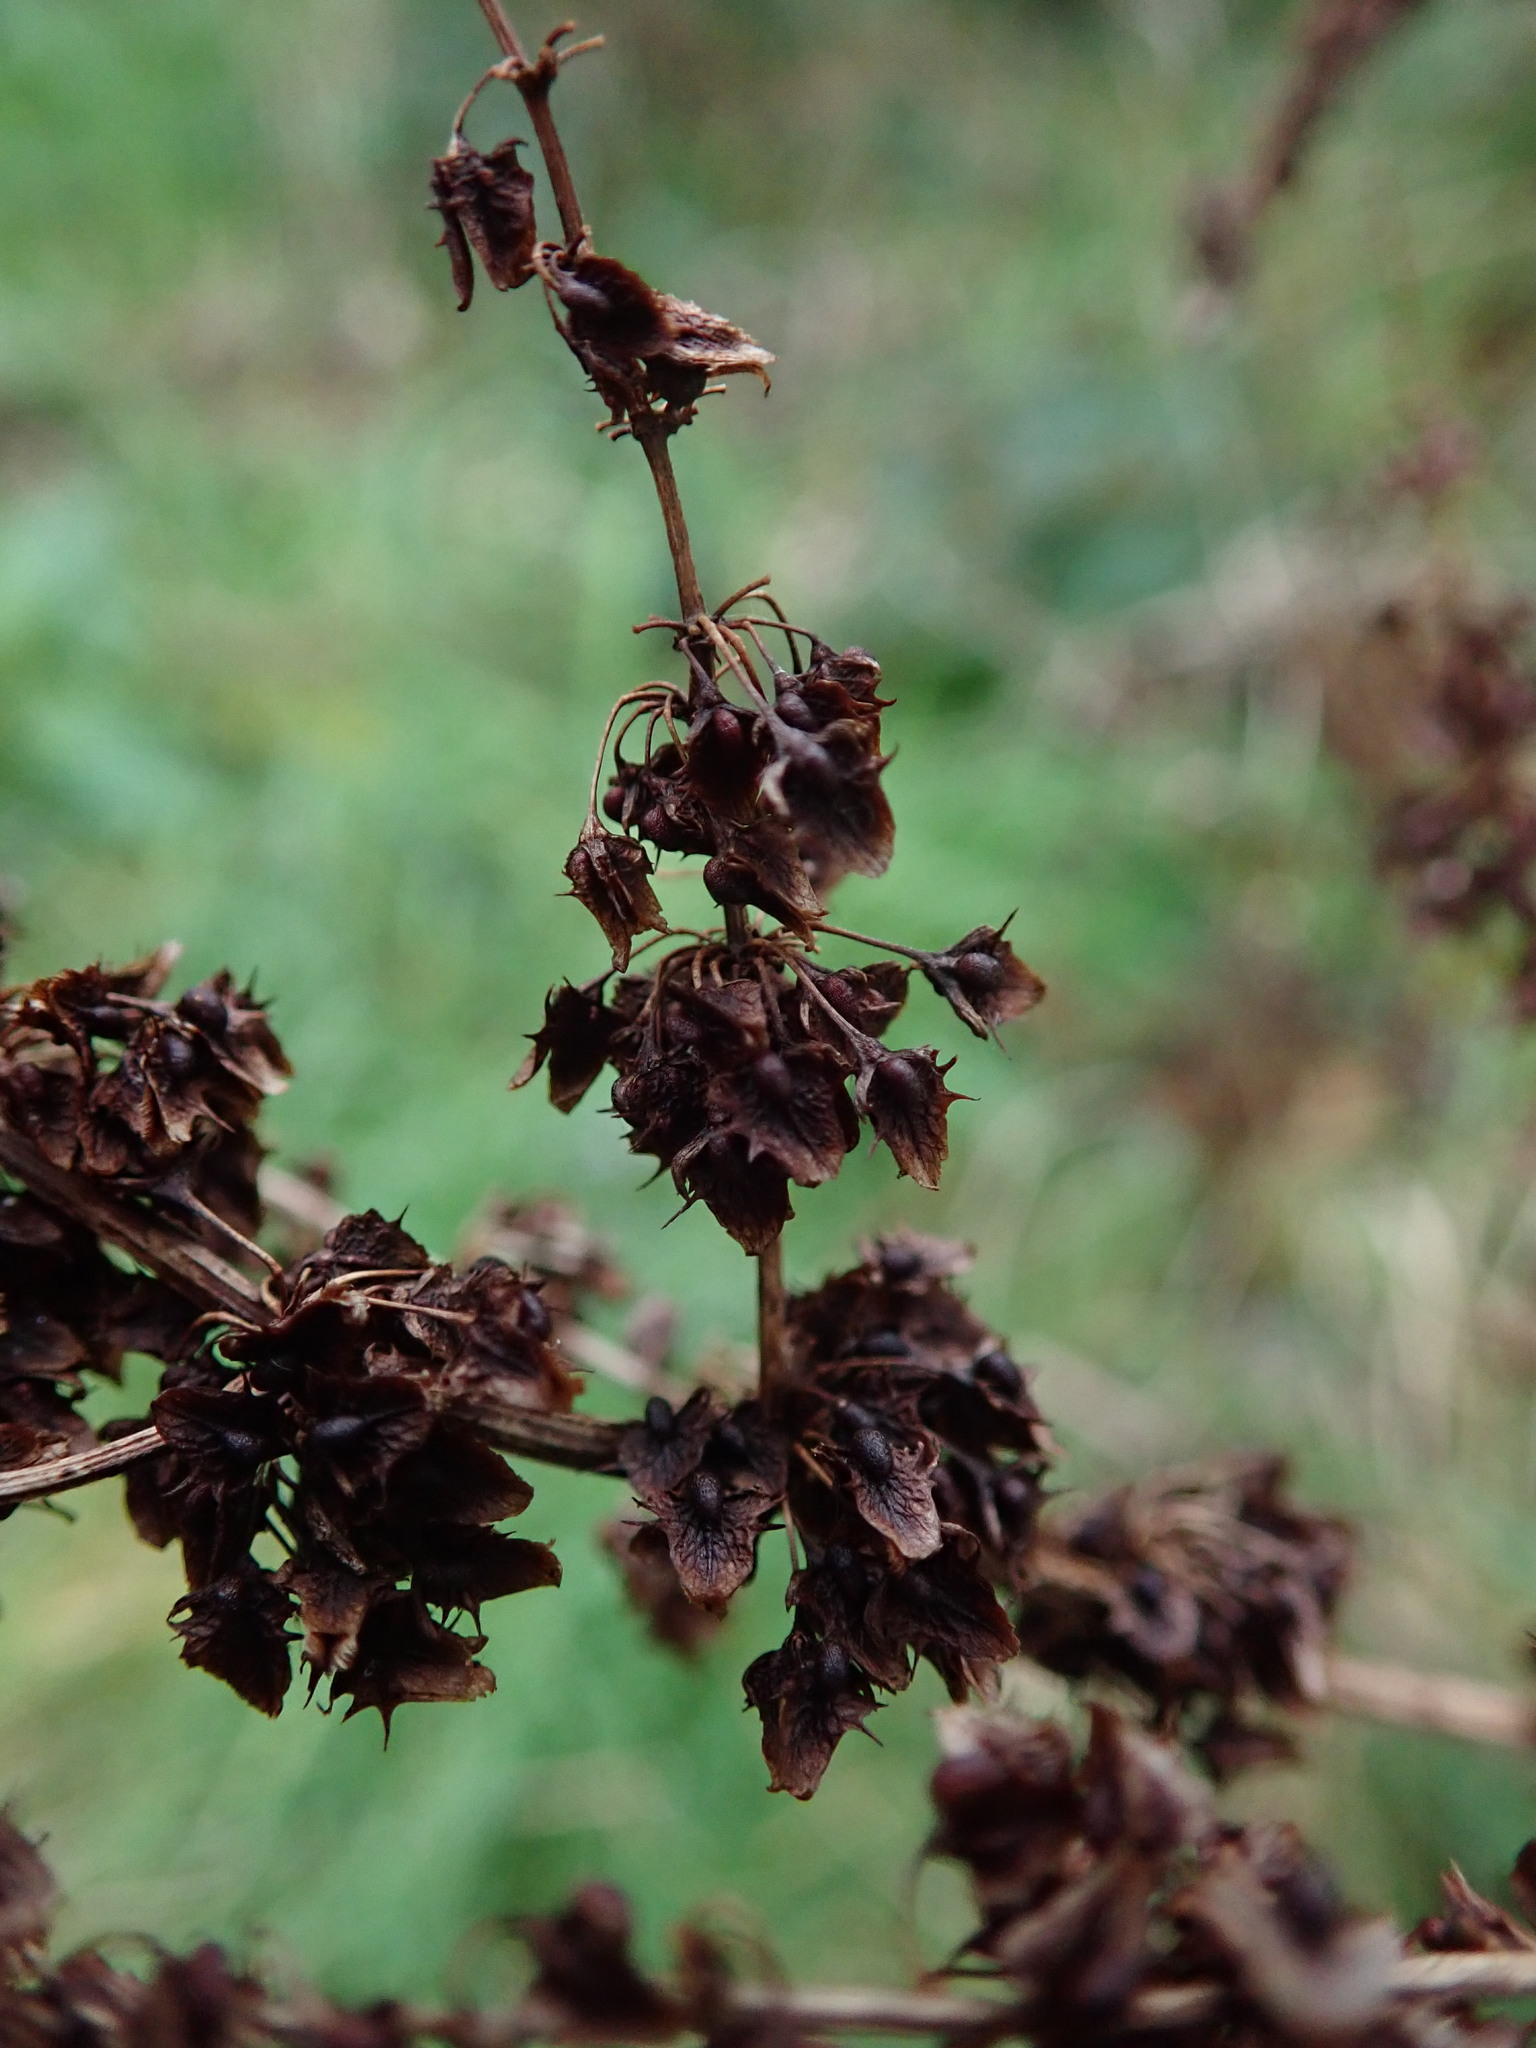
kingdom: Plantae
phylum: Tracheophyta
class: Magnoliopsida
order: Caryophyllales
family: Polygonaceae
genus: Rumex
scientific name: Rumex obtusifolius
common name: Bitter dock
